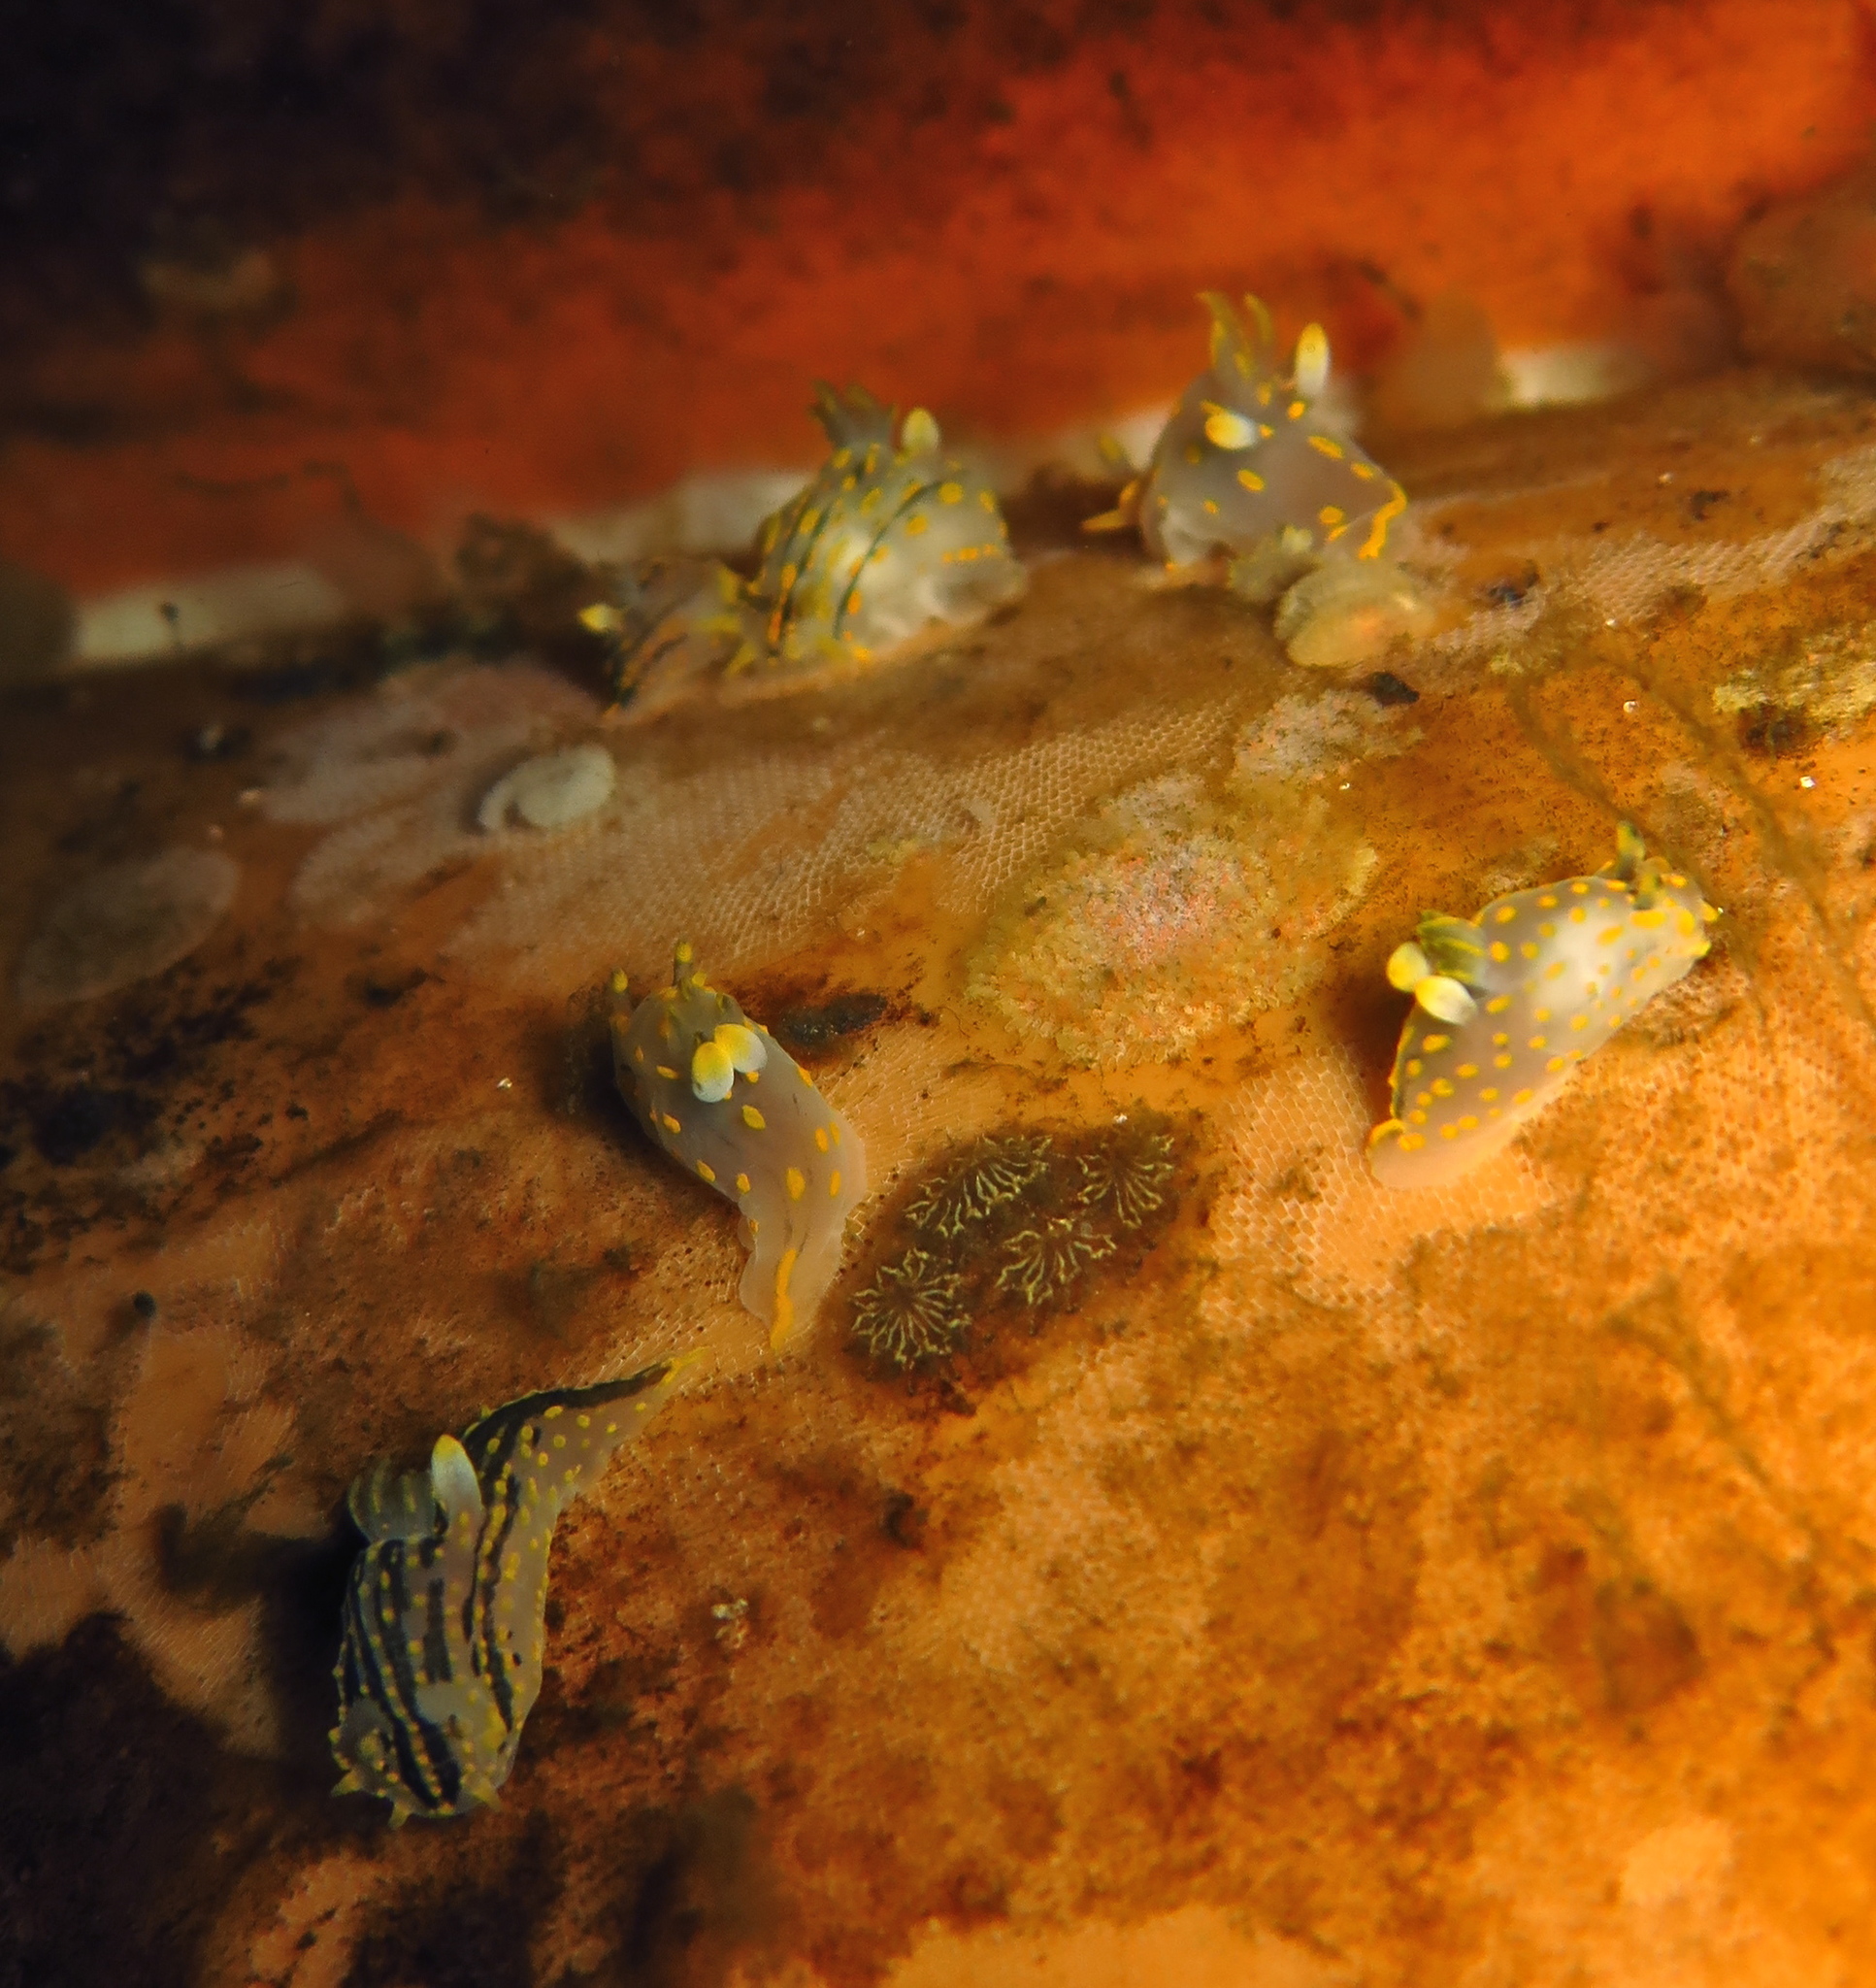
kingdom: Animalia
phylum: Mollusca
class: Gastropoda
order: Nudibranchia
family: Polyceridae
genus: Polycera
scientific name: Polycera quadrilineata
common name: Four-striped polycera
